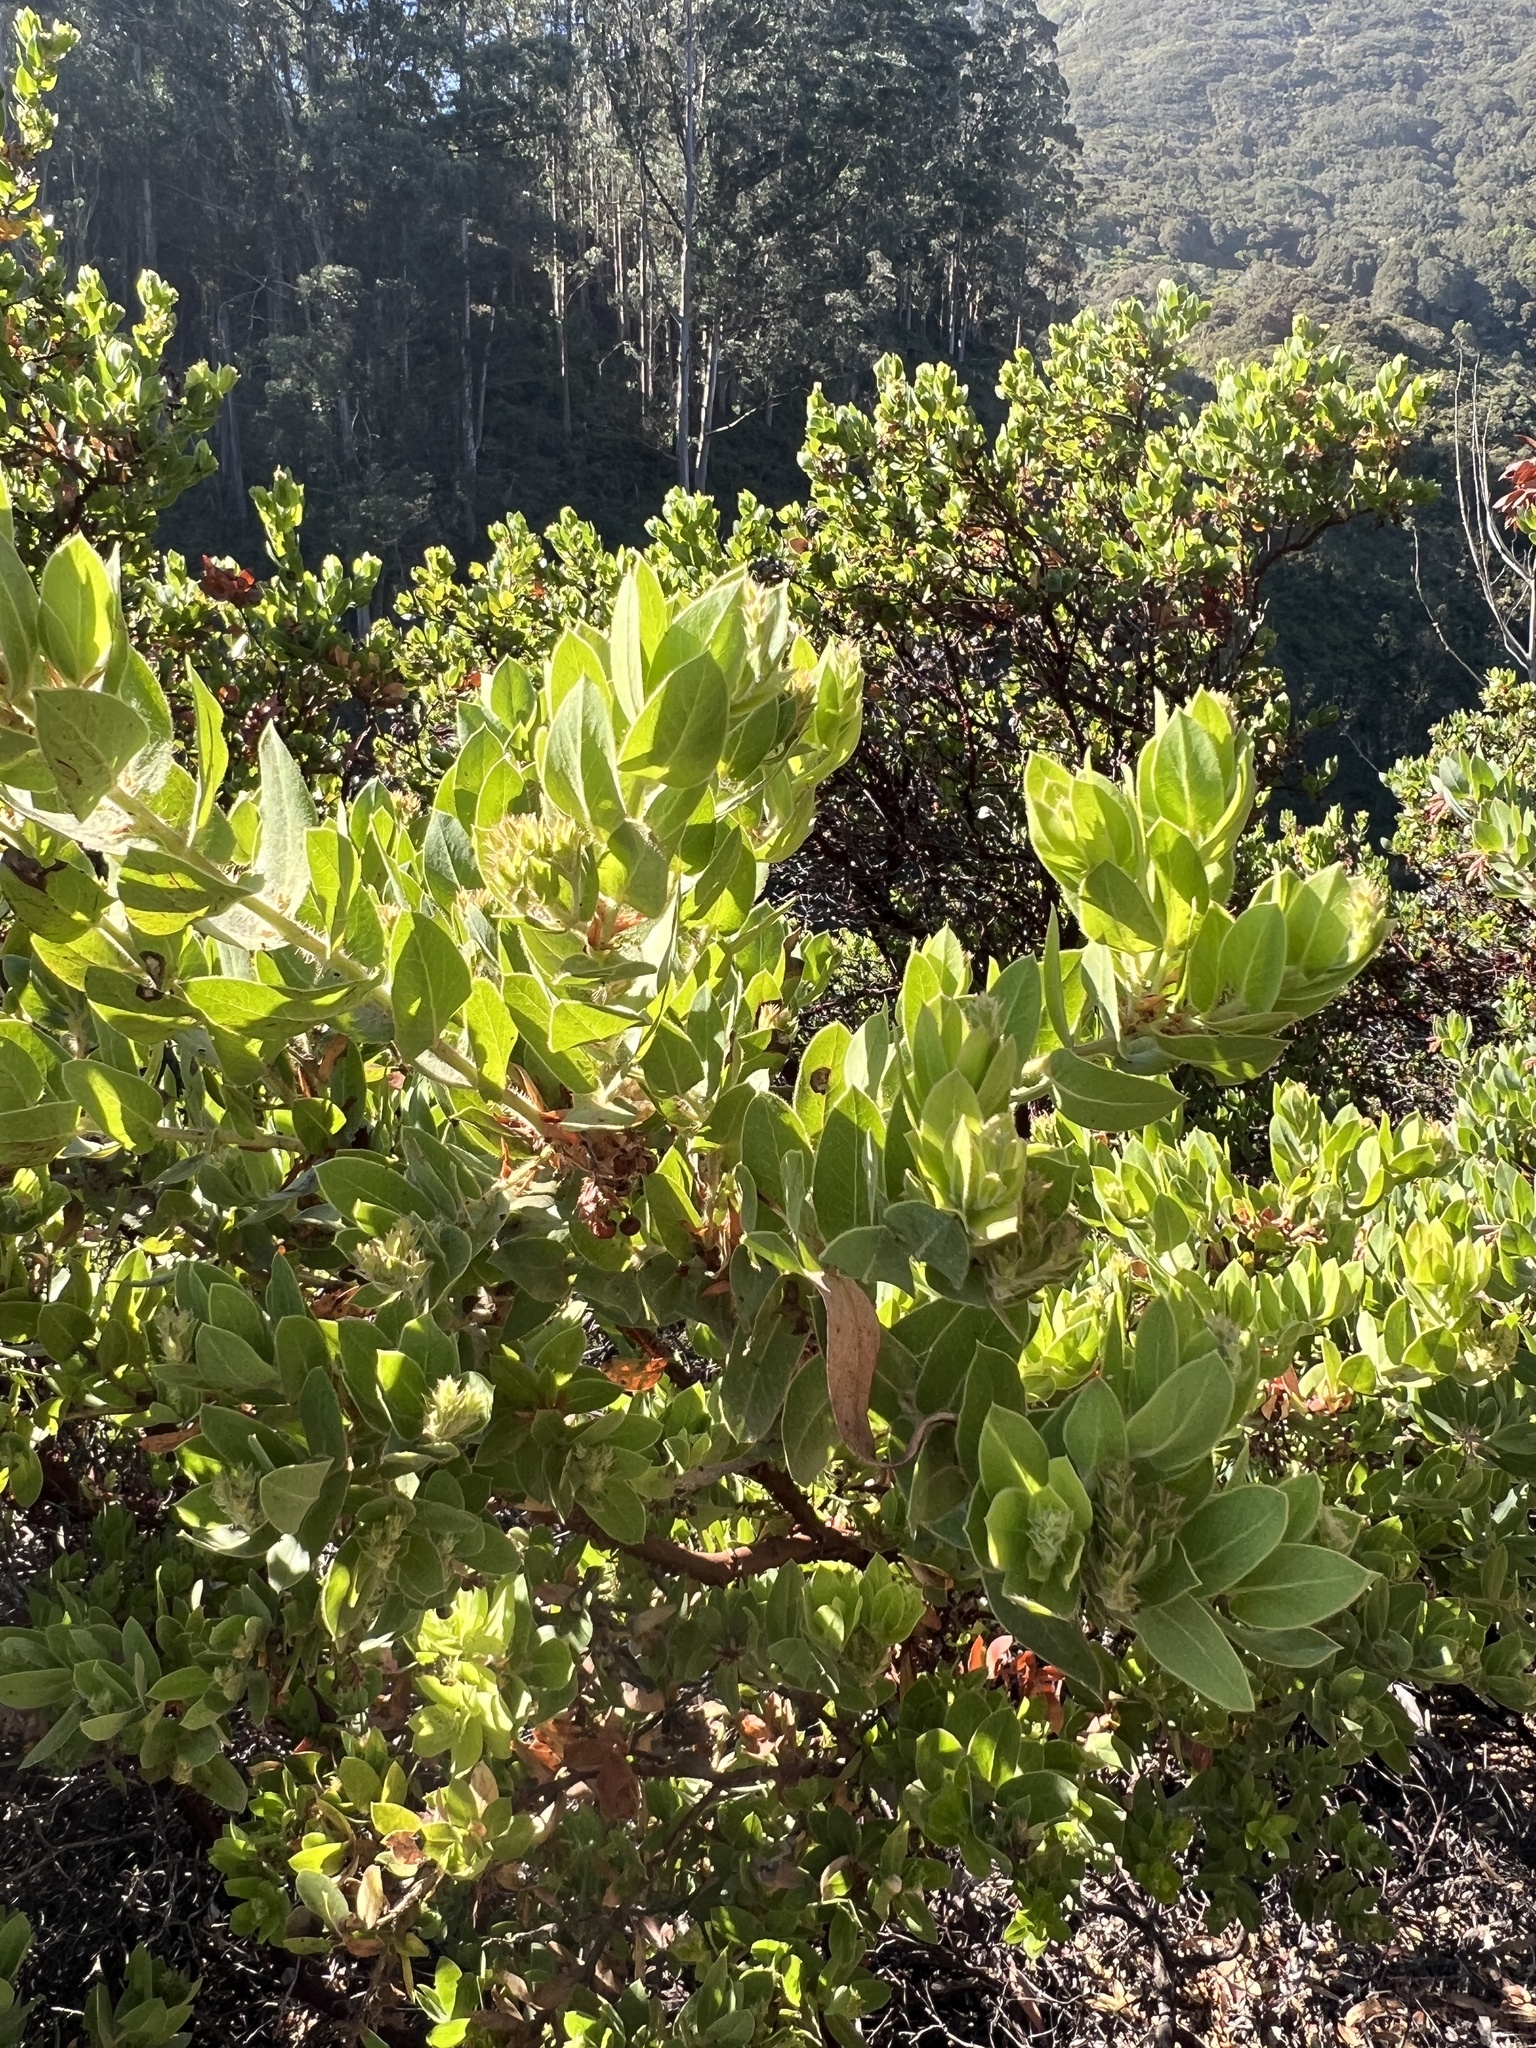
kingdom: Plantae
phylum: Tracheophyta
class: Magnoliopsida
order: Ericales
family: Ericaceae
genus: Arctostaphylos
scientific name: Arctostaphylos montaraensis
